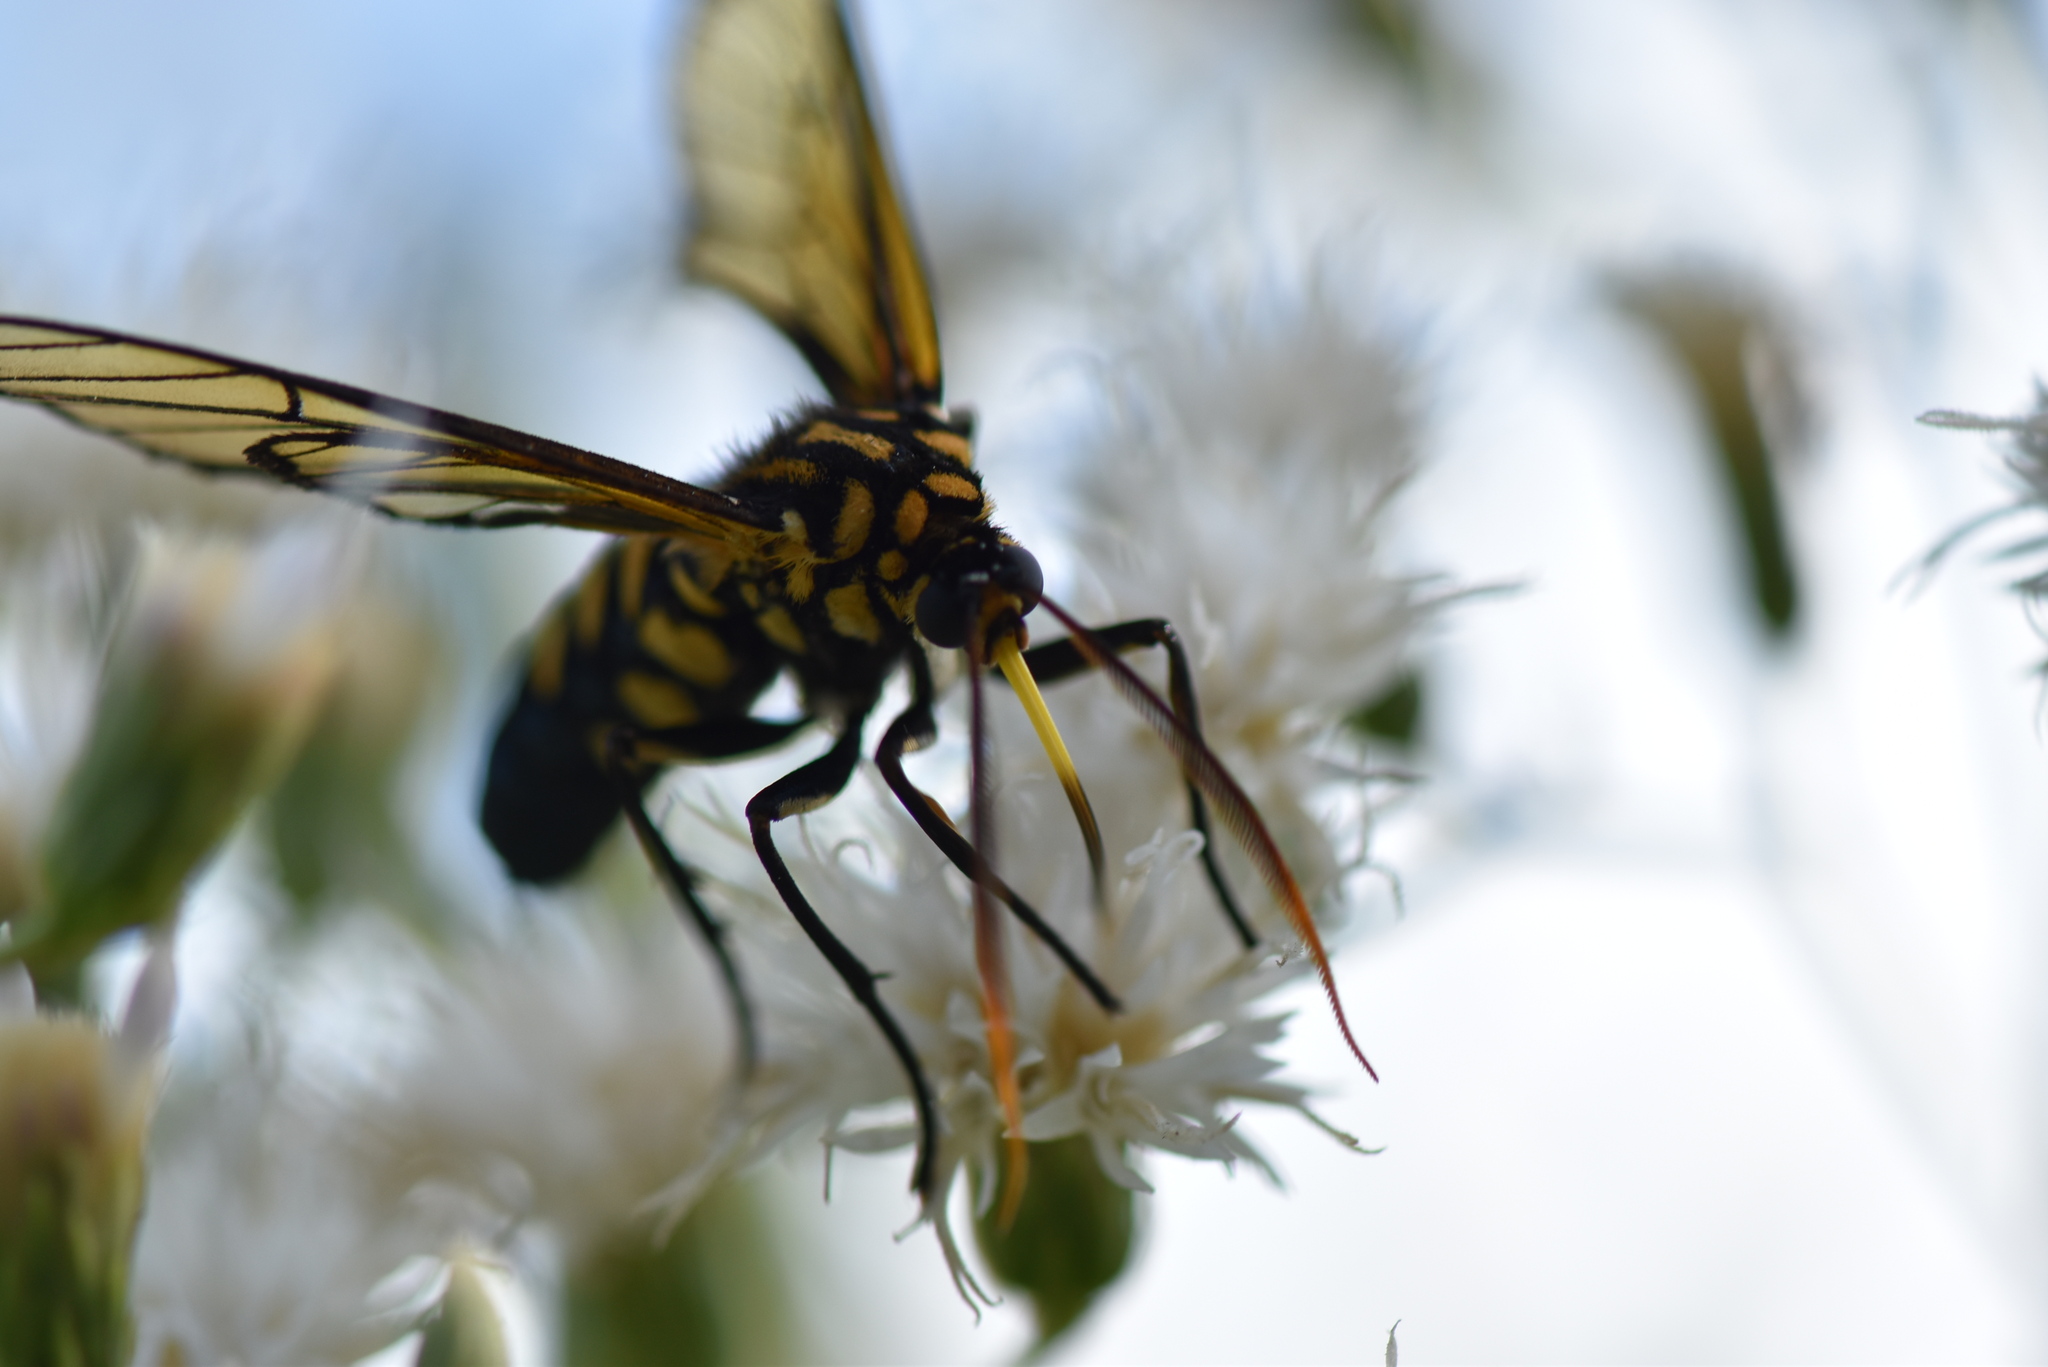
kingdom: Animalia
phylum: Arthropoda
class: Insecta
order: Lepidoptera
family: Erebidae
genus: Isanthrene
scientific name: Isanthrene melas
